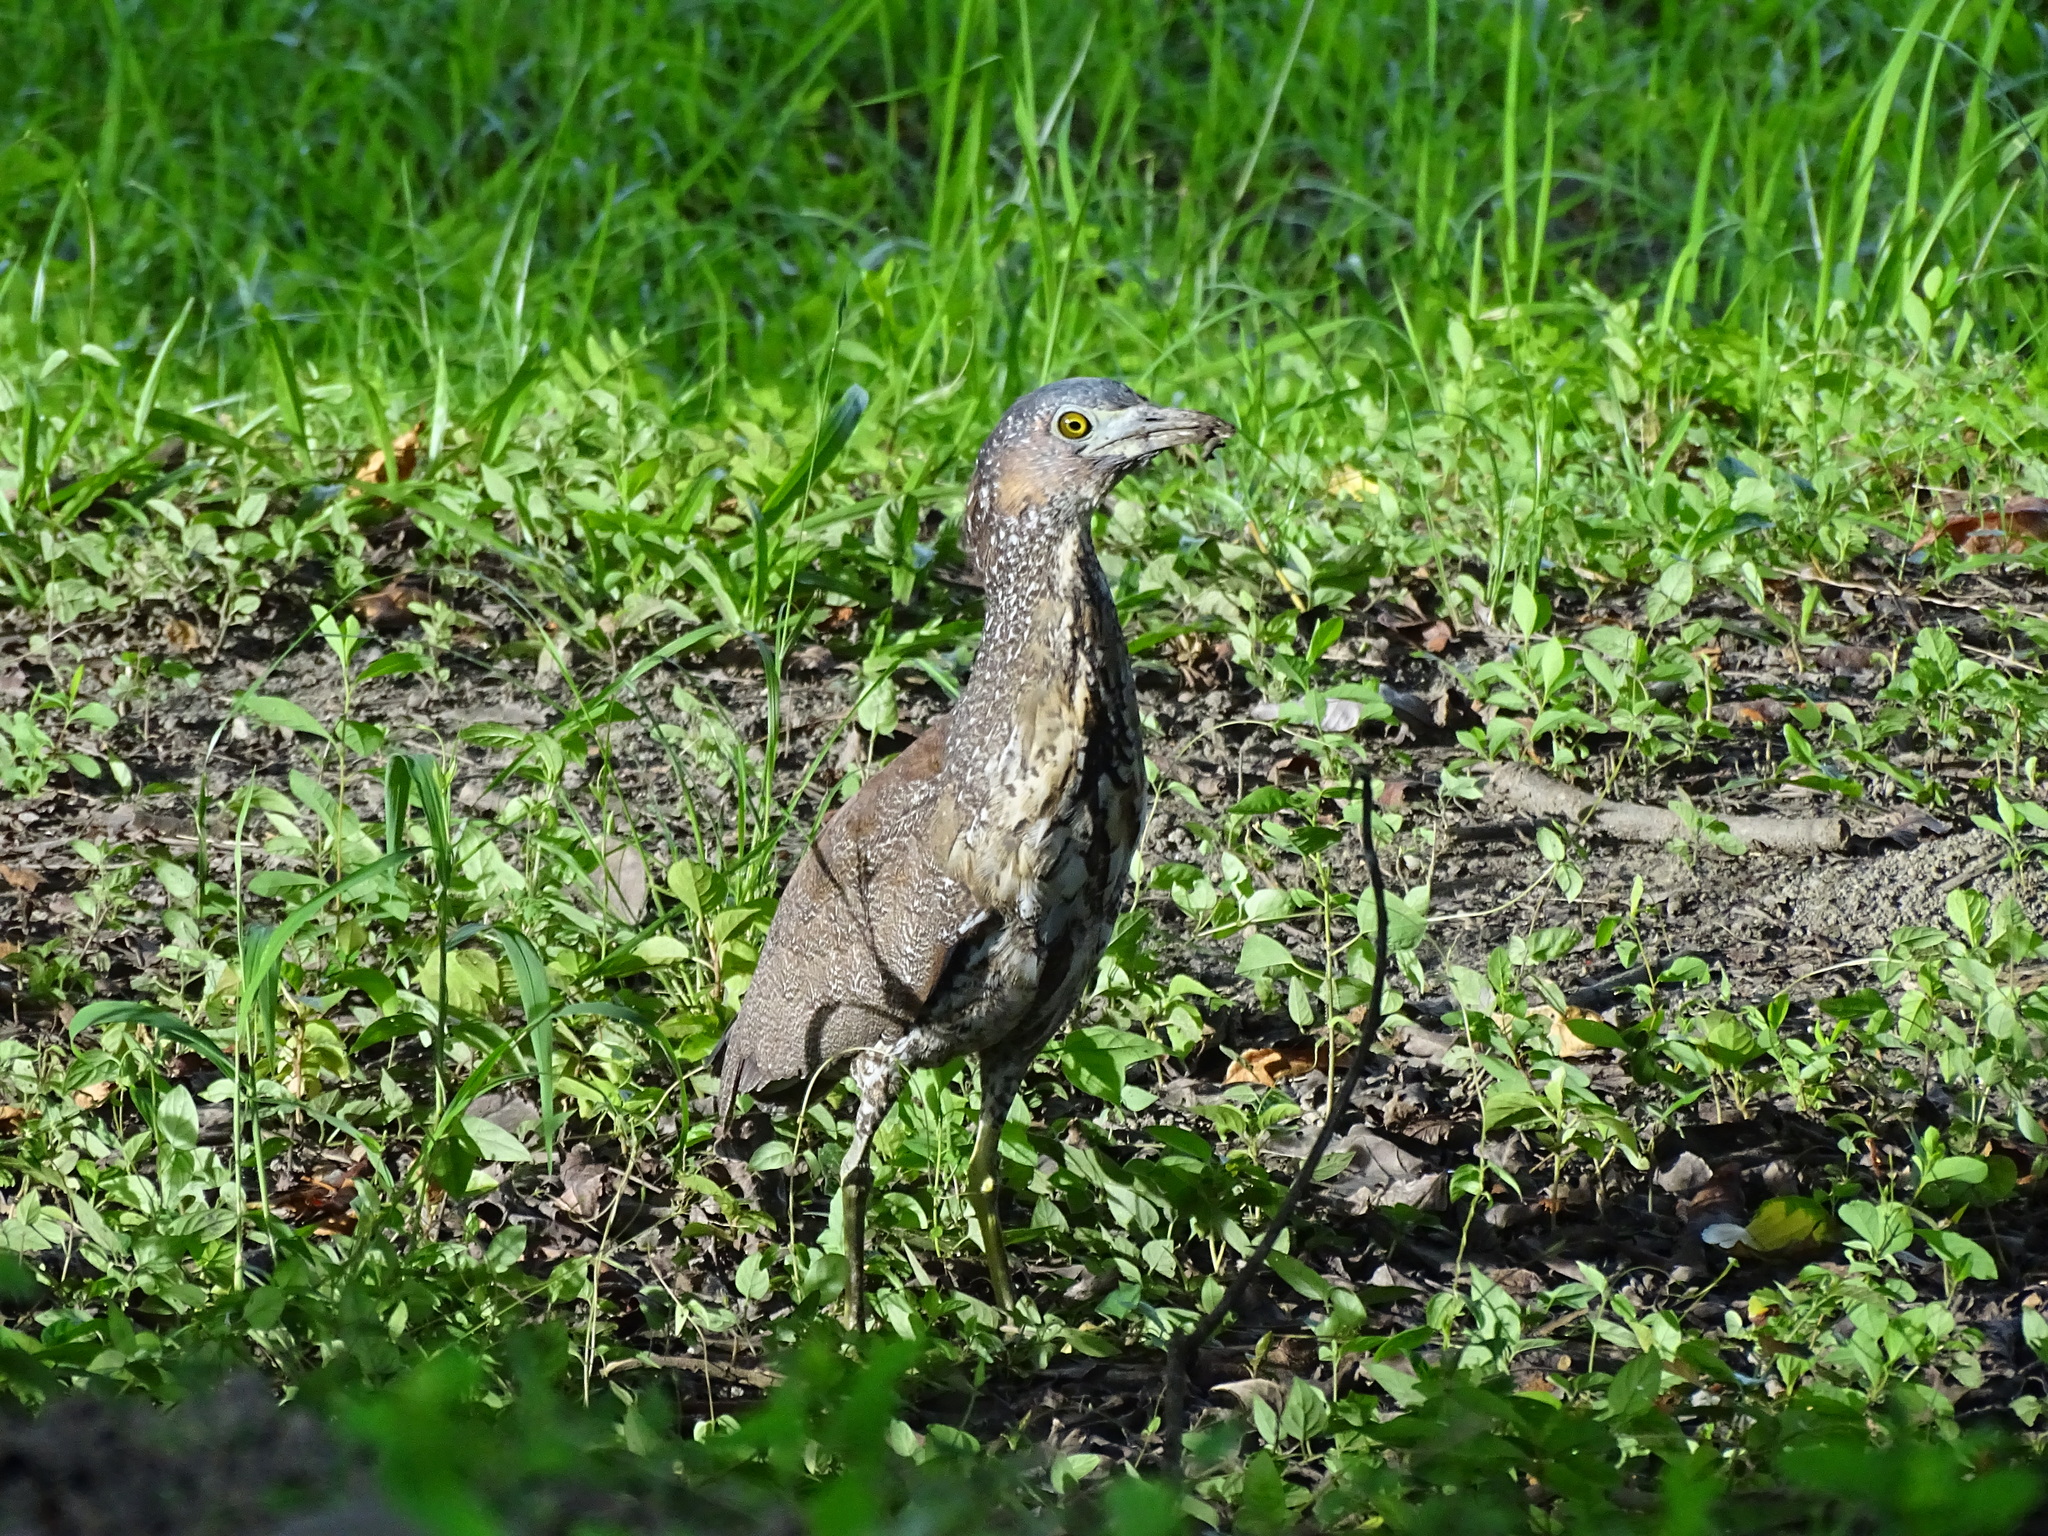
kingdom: Animalia
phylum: Chordata
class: Aves
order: Pelecaniformes
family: Ardeidae
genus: Gorsachius
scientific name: Gorsachius melanolophus
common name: Malayan night heron
